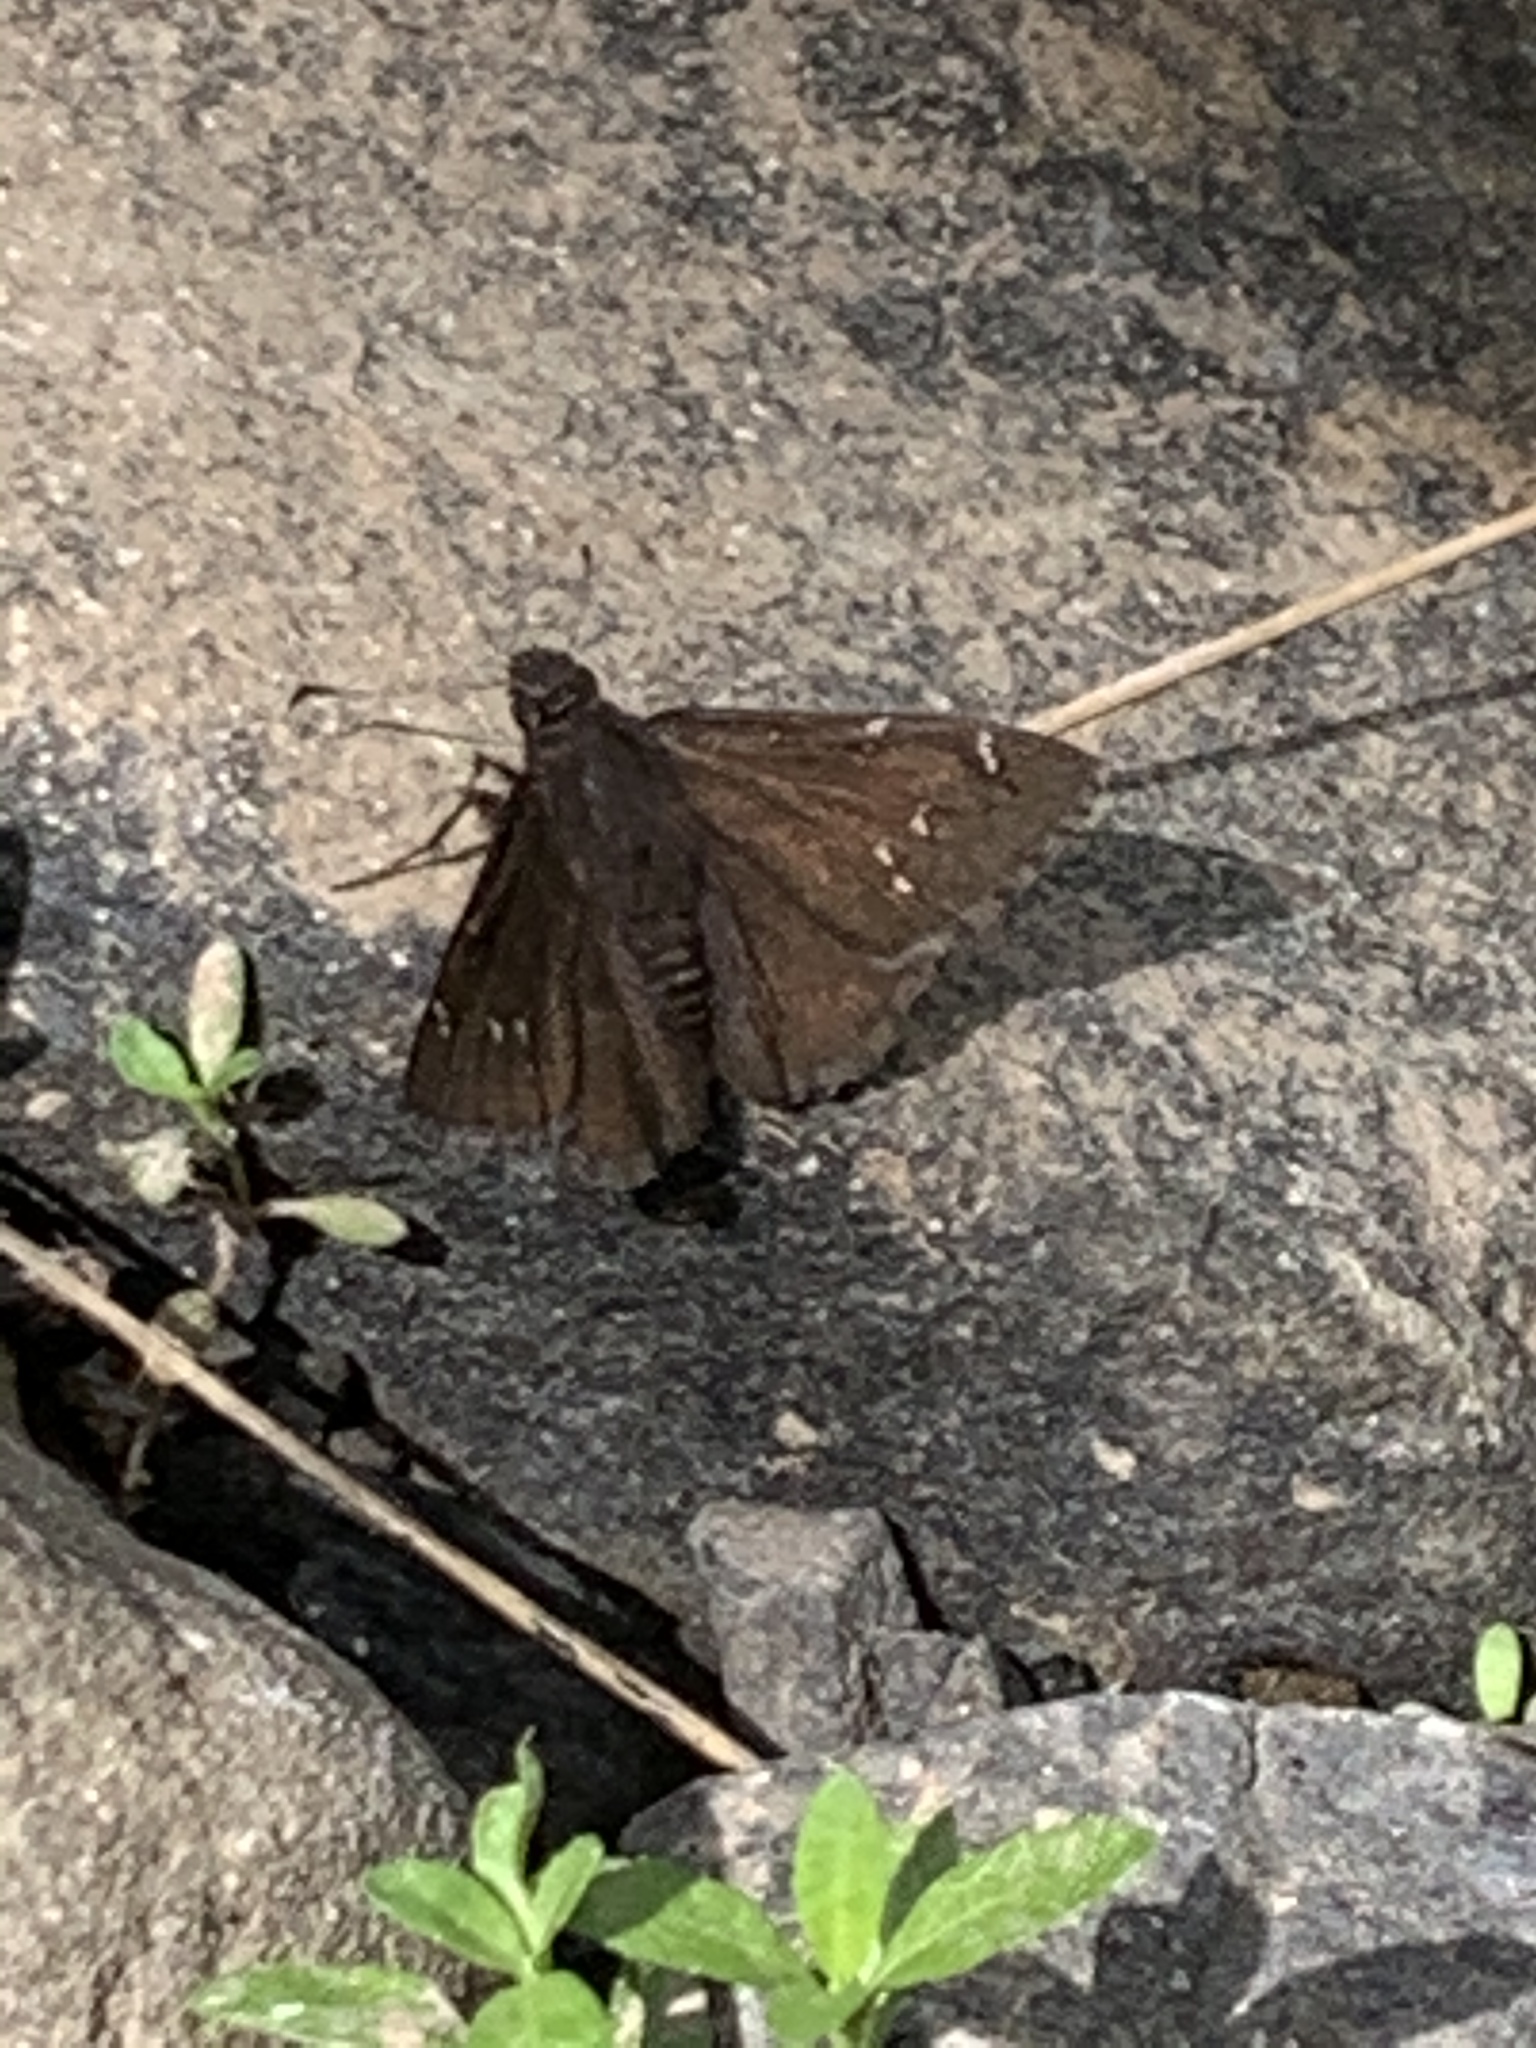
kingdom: Animalia
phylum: Arthropoda
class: Insecta
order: Lepidoptera
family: Hesperiidae
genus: Thorybes
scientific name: Thorybes pylades
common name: Northern cloudywing
